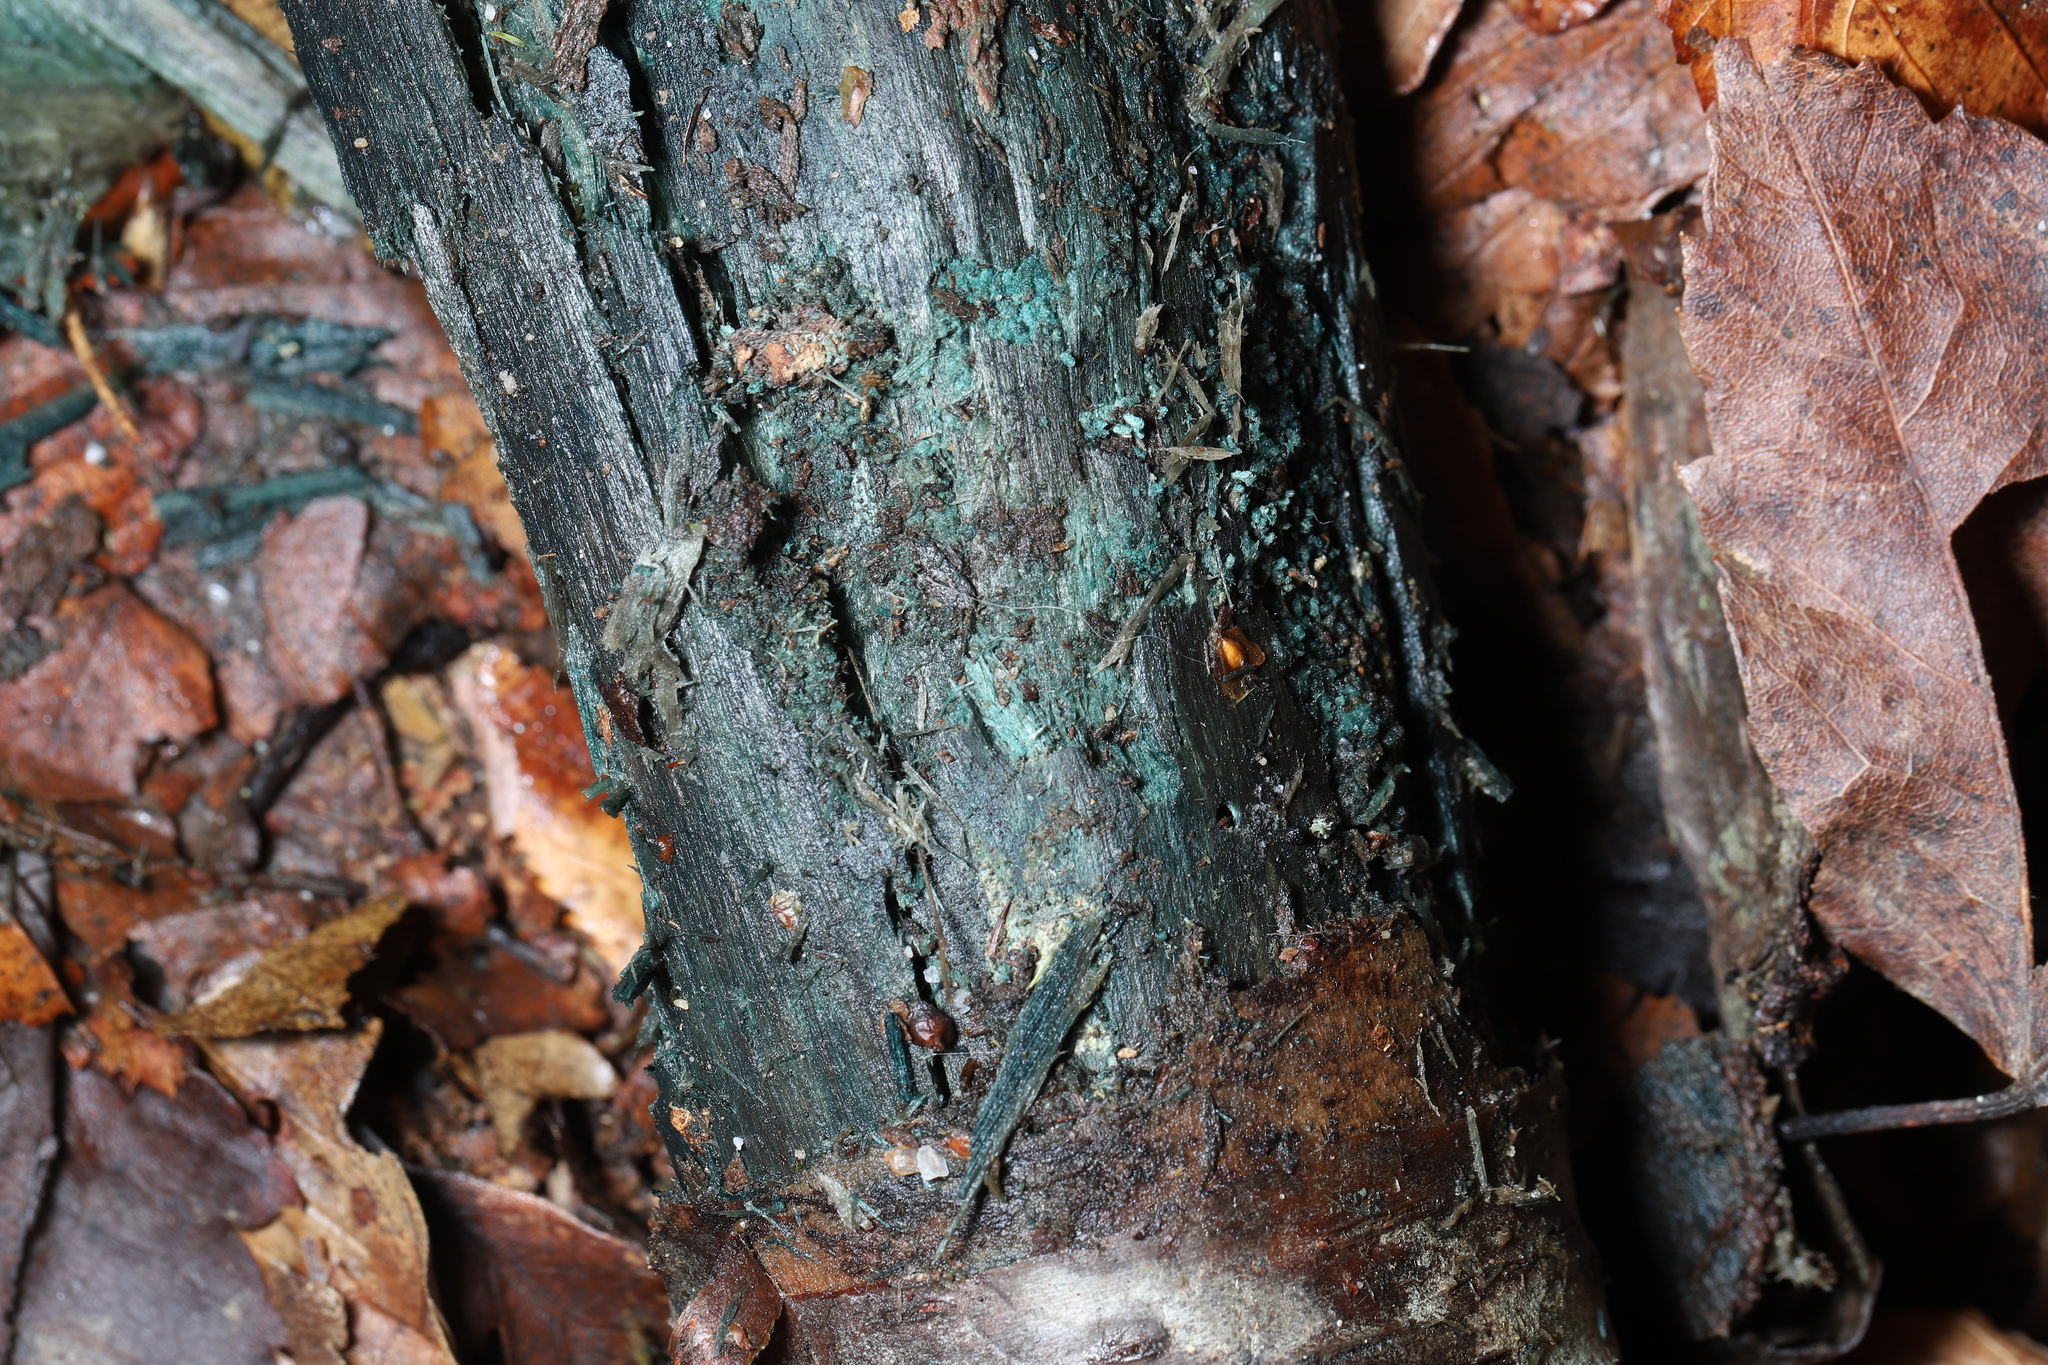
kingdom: Fungi
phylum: Ascomycota
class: Leotiomycetes
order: Helotiales
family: Chlorociboriaceae
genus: Chlorociboria
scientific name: Chlorociboria
